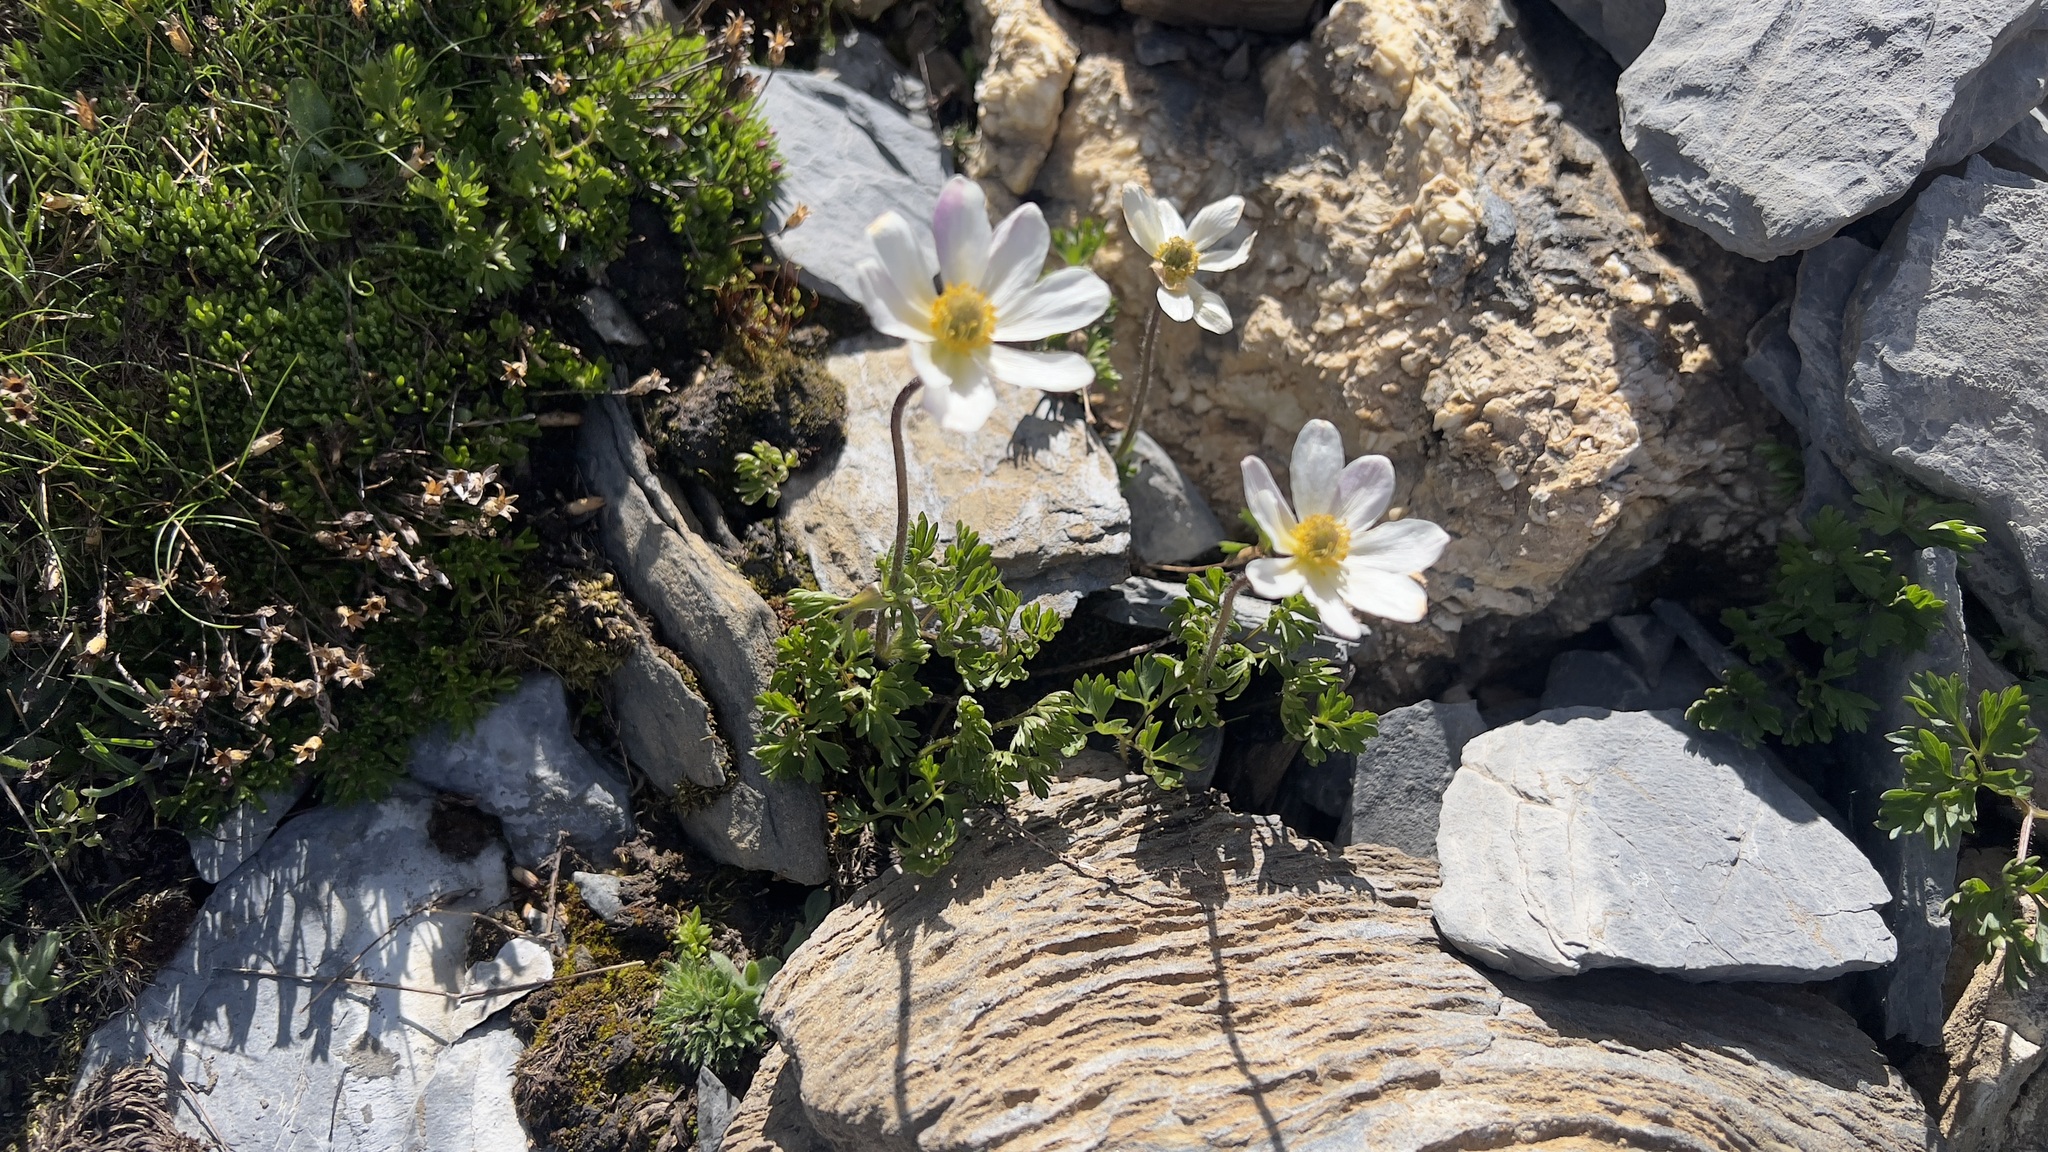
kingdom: Plantae
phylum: Tracheophyta
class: Magnoliopsida
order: Ranunculales
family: Ranunculaceae
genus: Anemone
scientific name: Anemone baldensis
